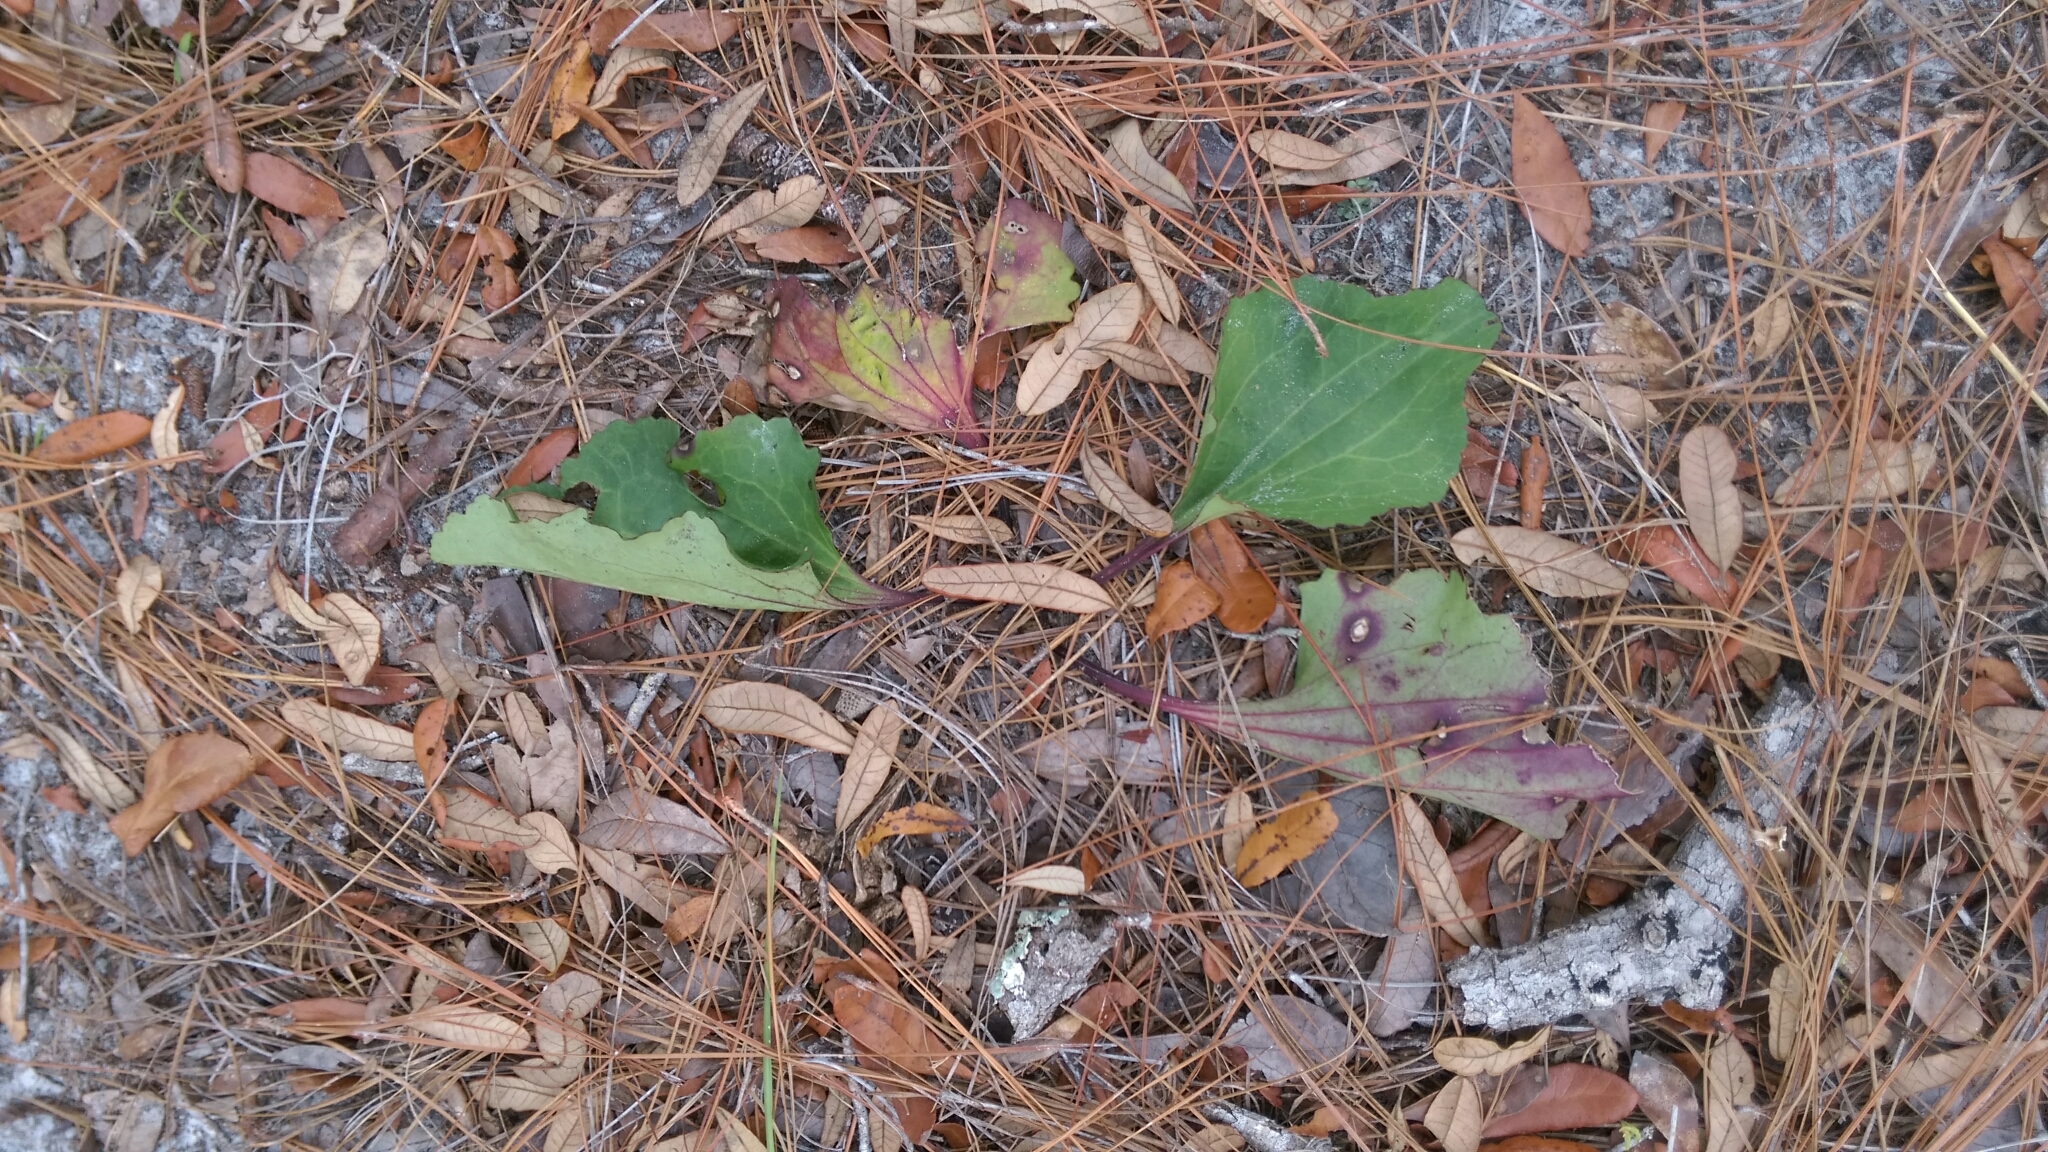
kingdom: Plantae
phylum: Tracheophyta
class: Magnoliopsida
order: Asterales
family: Asteraceae
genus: Arnoglossum
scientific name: Arnoglossum floridanum
